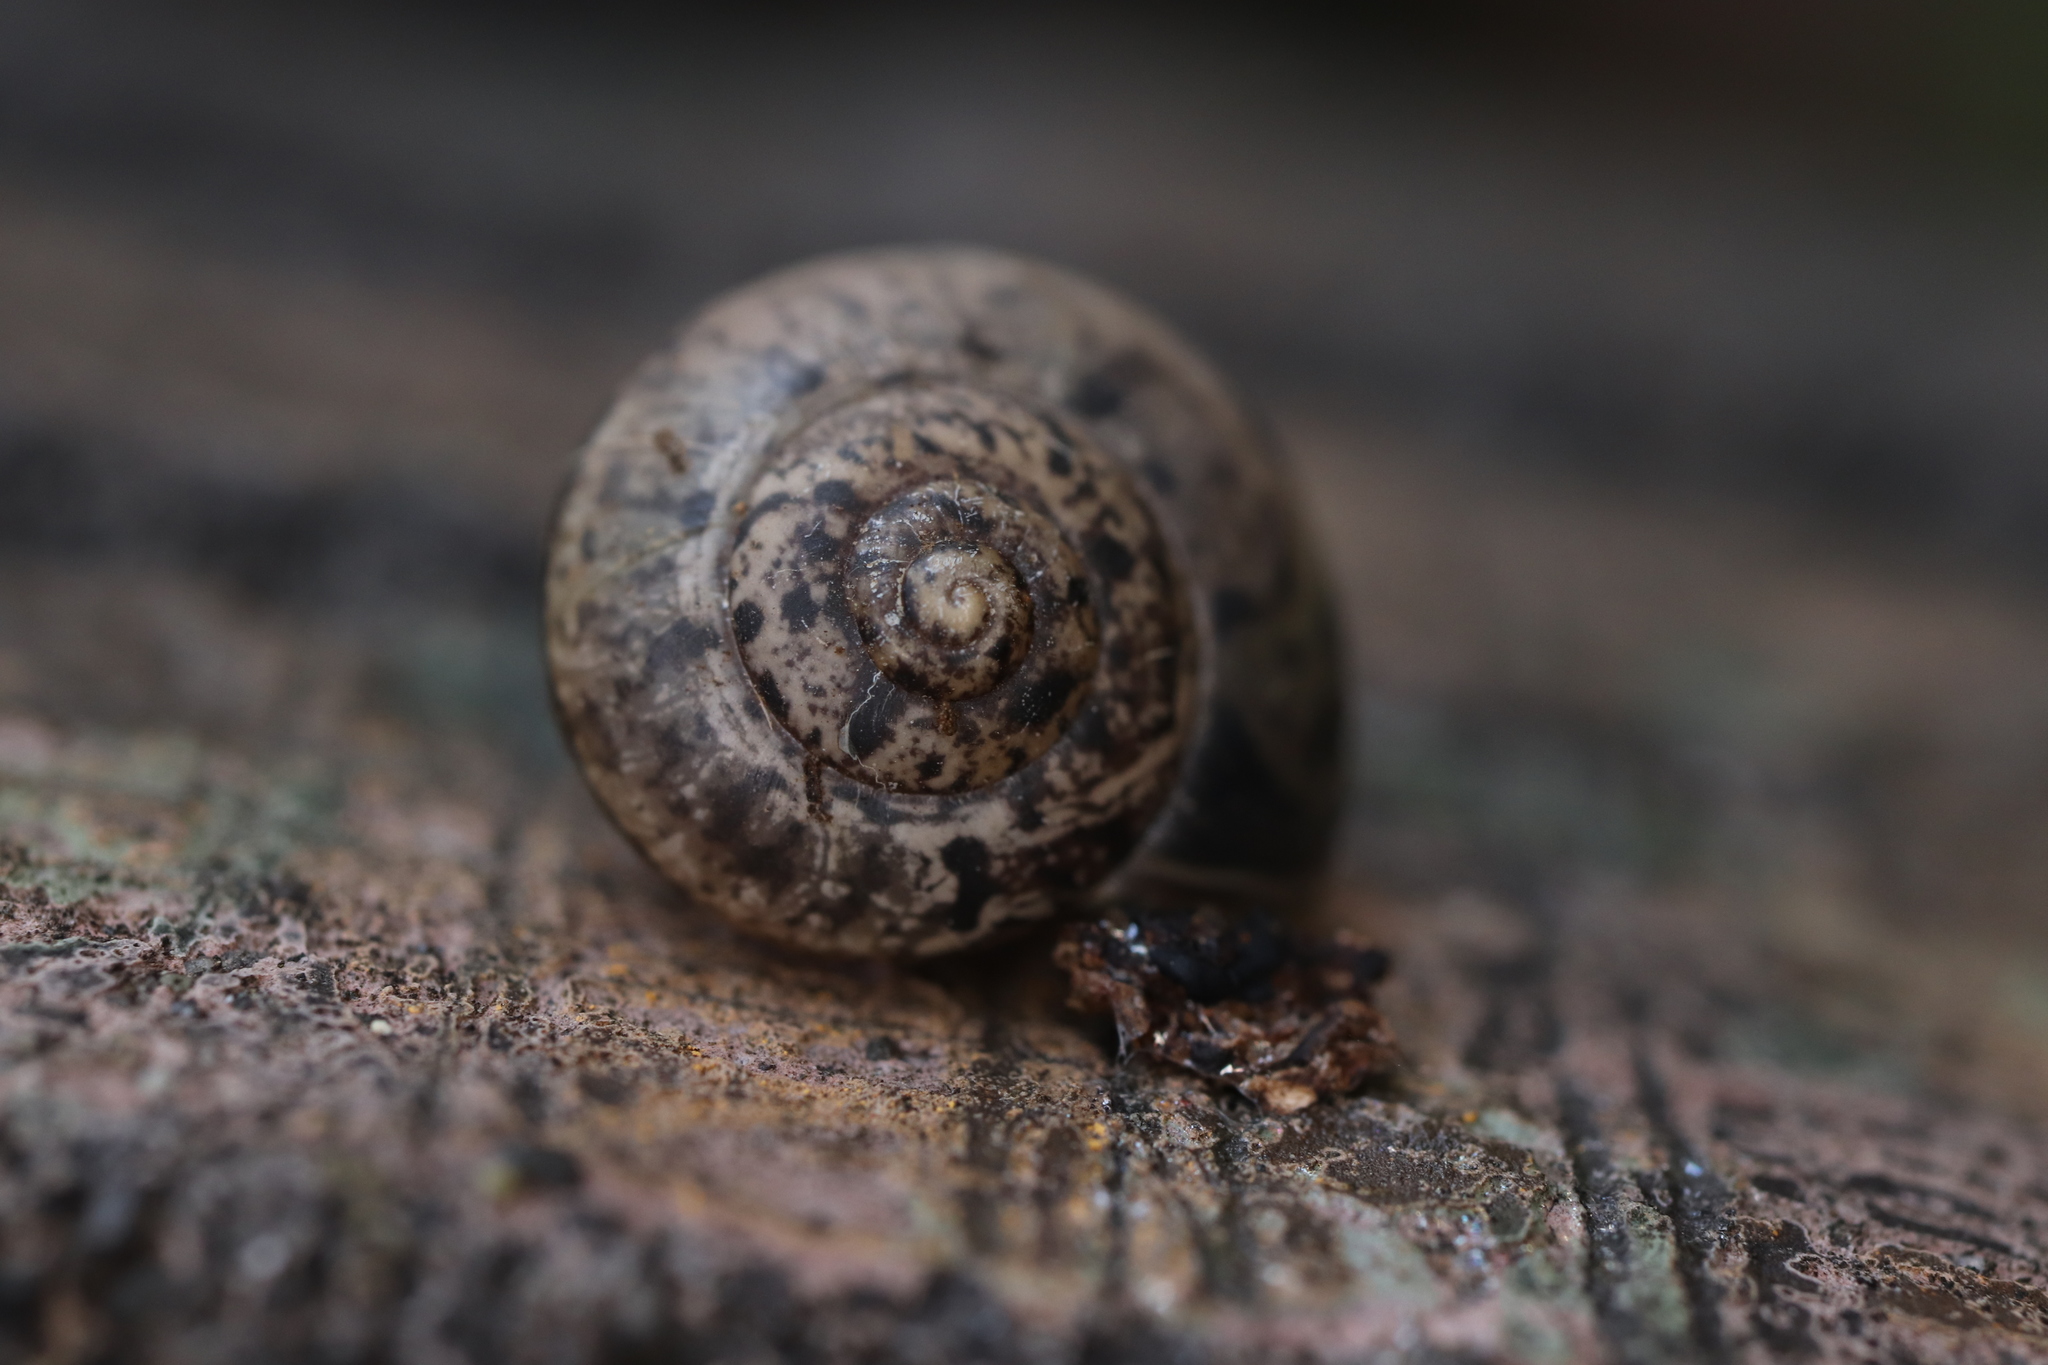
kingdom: Animalia
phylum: Mollusca
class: Gastropoda
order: Stylommatophora
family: Camaenidae
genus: Acusta
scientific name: Acusta sieboldtiana
